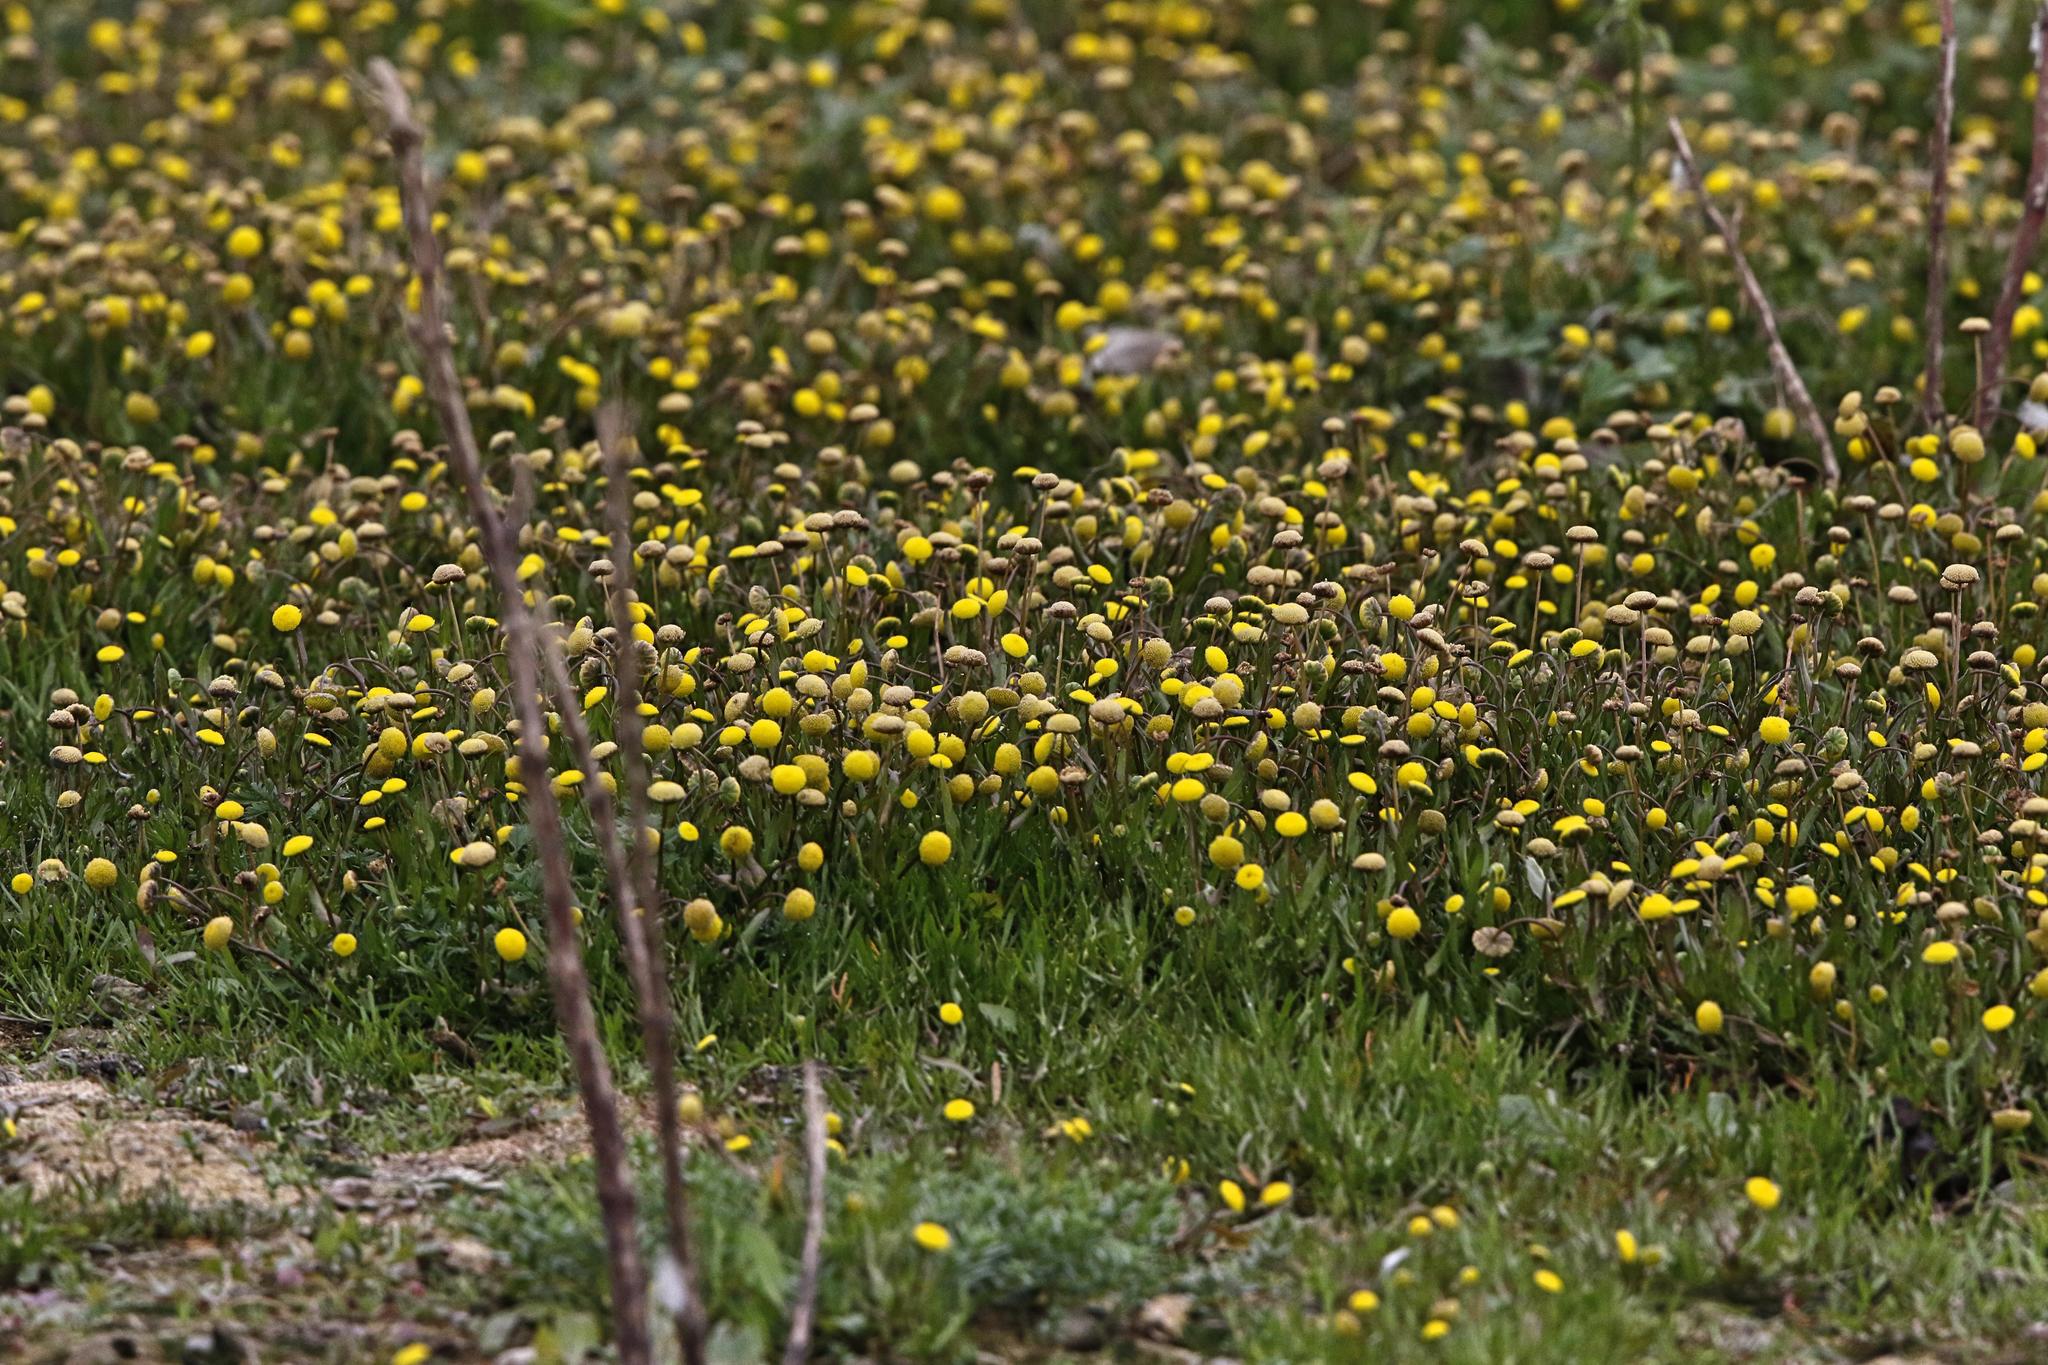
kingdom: Plantae
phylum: Tracheophyta
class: Magnoliopsida
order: Asterales
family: Asteraceae
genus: Cotula
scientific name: Cotula coronopifolia
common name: Buttonweed
